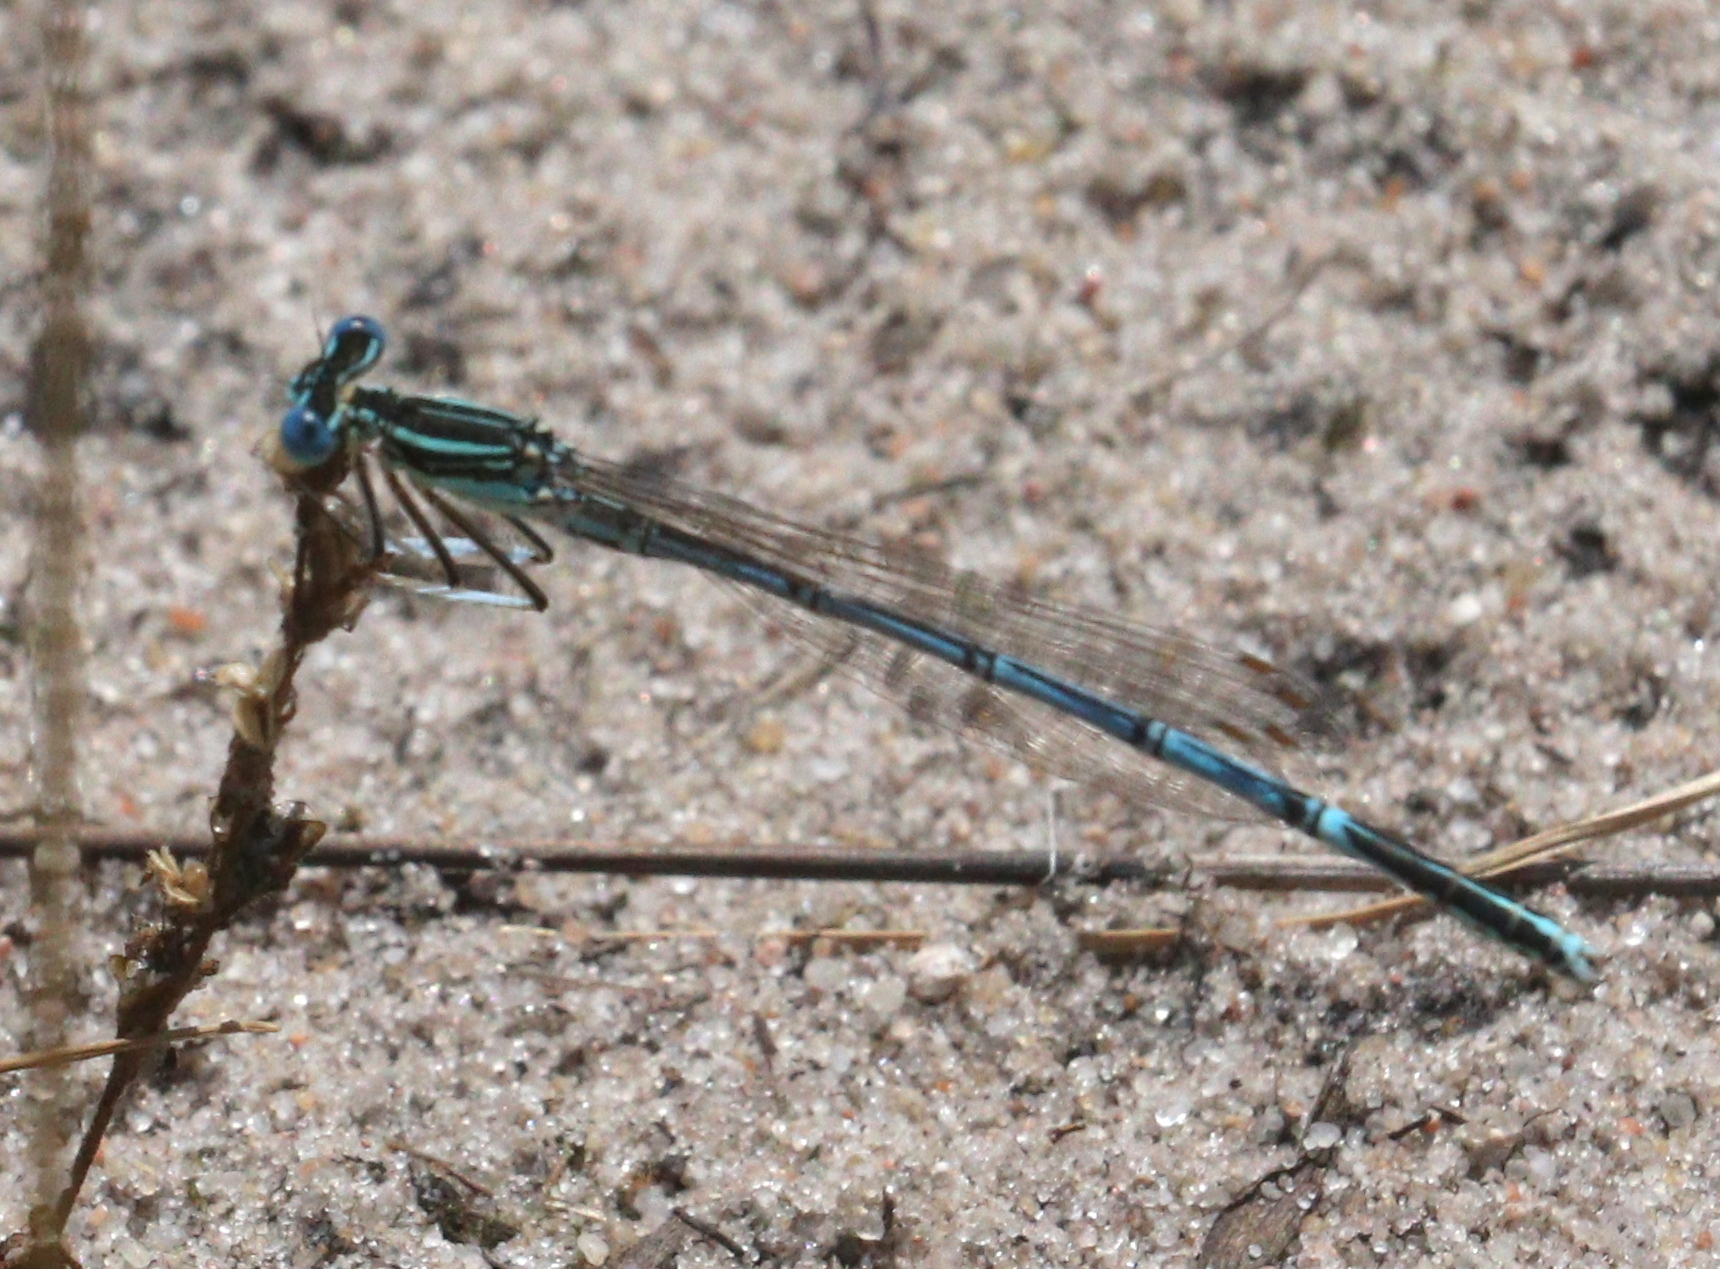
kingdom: Animalia
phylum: Arthropoda
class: Insecta
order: Odonata
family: Platycnemididae
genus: Platycnemis
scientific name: Platycnemis pennipes
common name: White-legged damselfly
